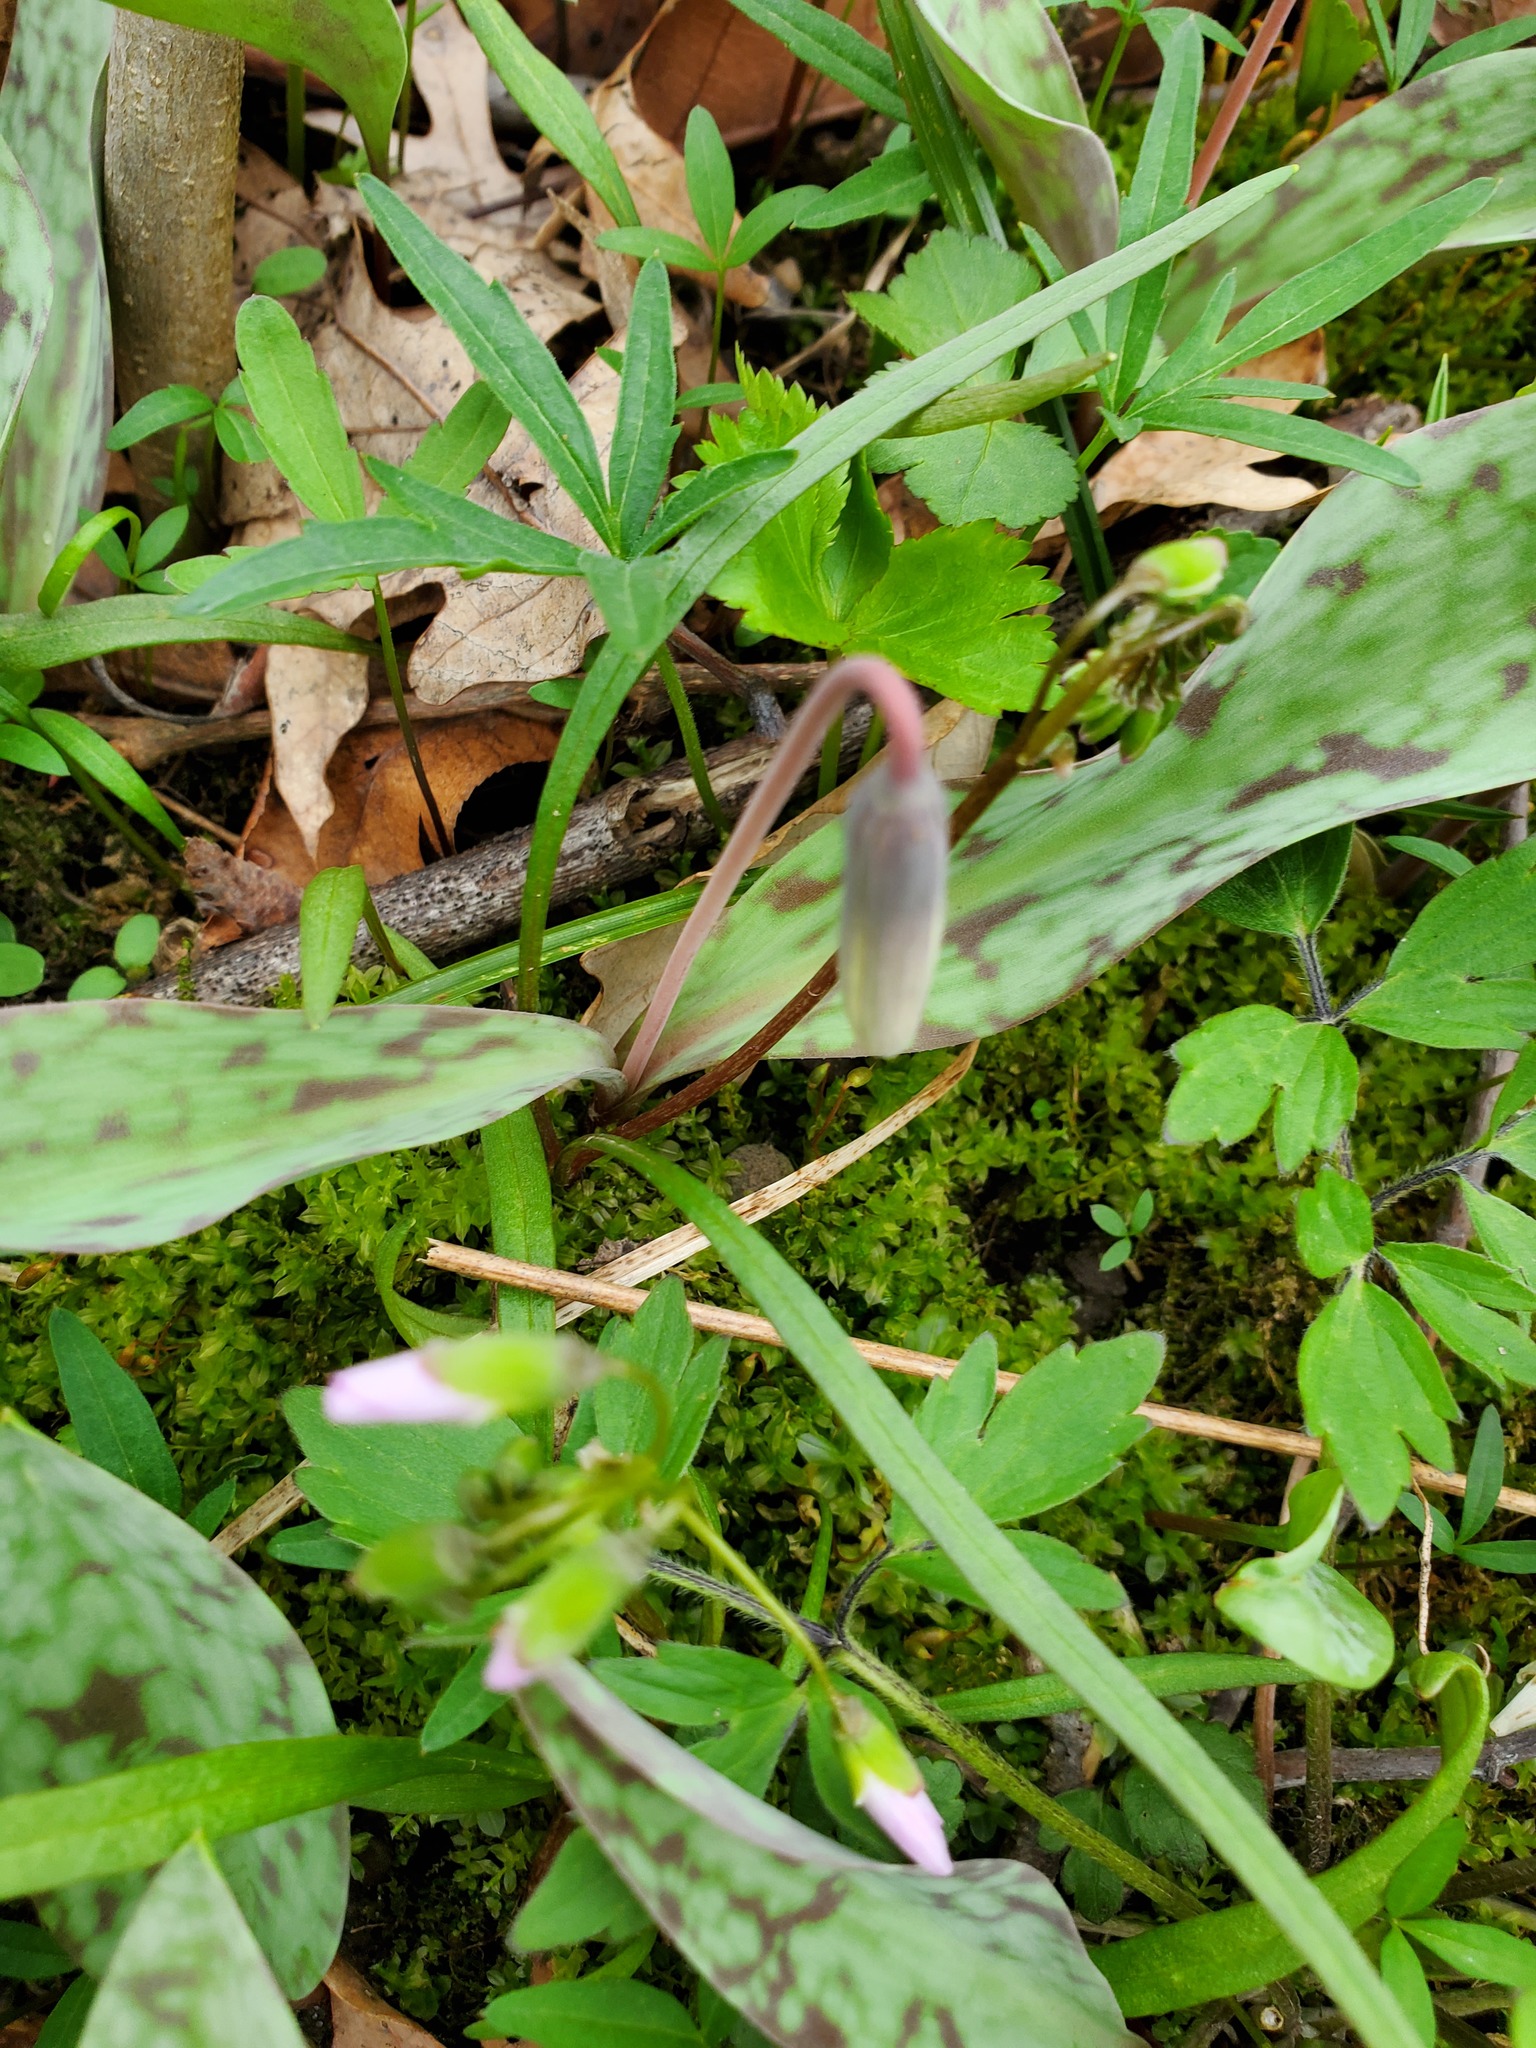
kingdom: Plantae
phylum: Tracheophyta
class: Liliopsida
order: Liliales
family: Liliaceae
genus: Erythronium
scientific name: Erythronium albidum
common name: White trout-lily
